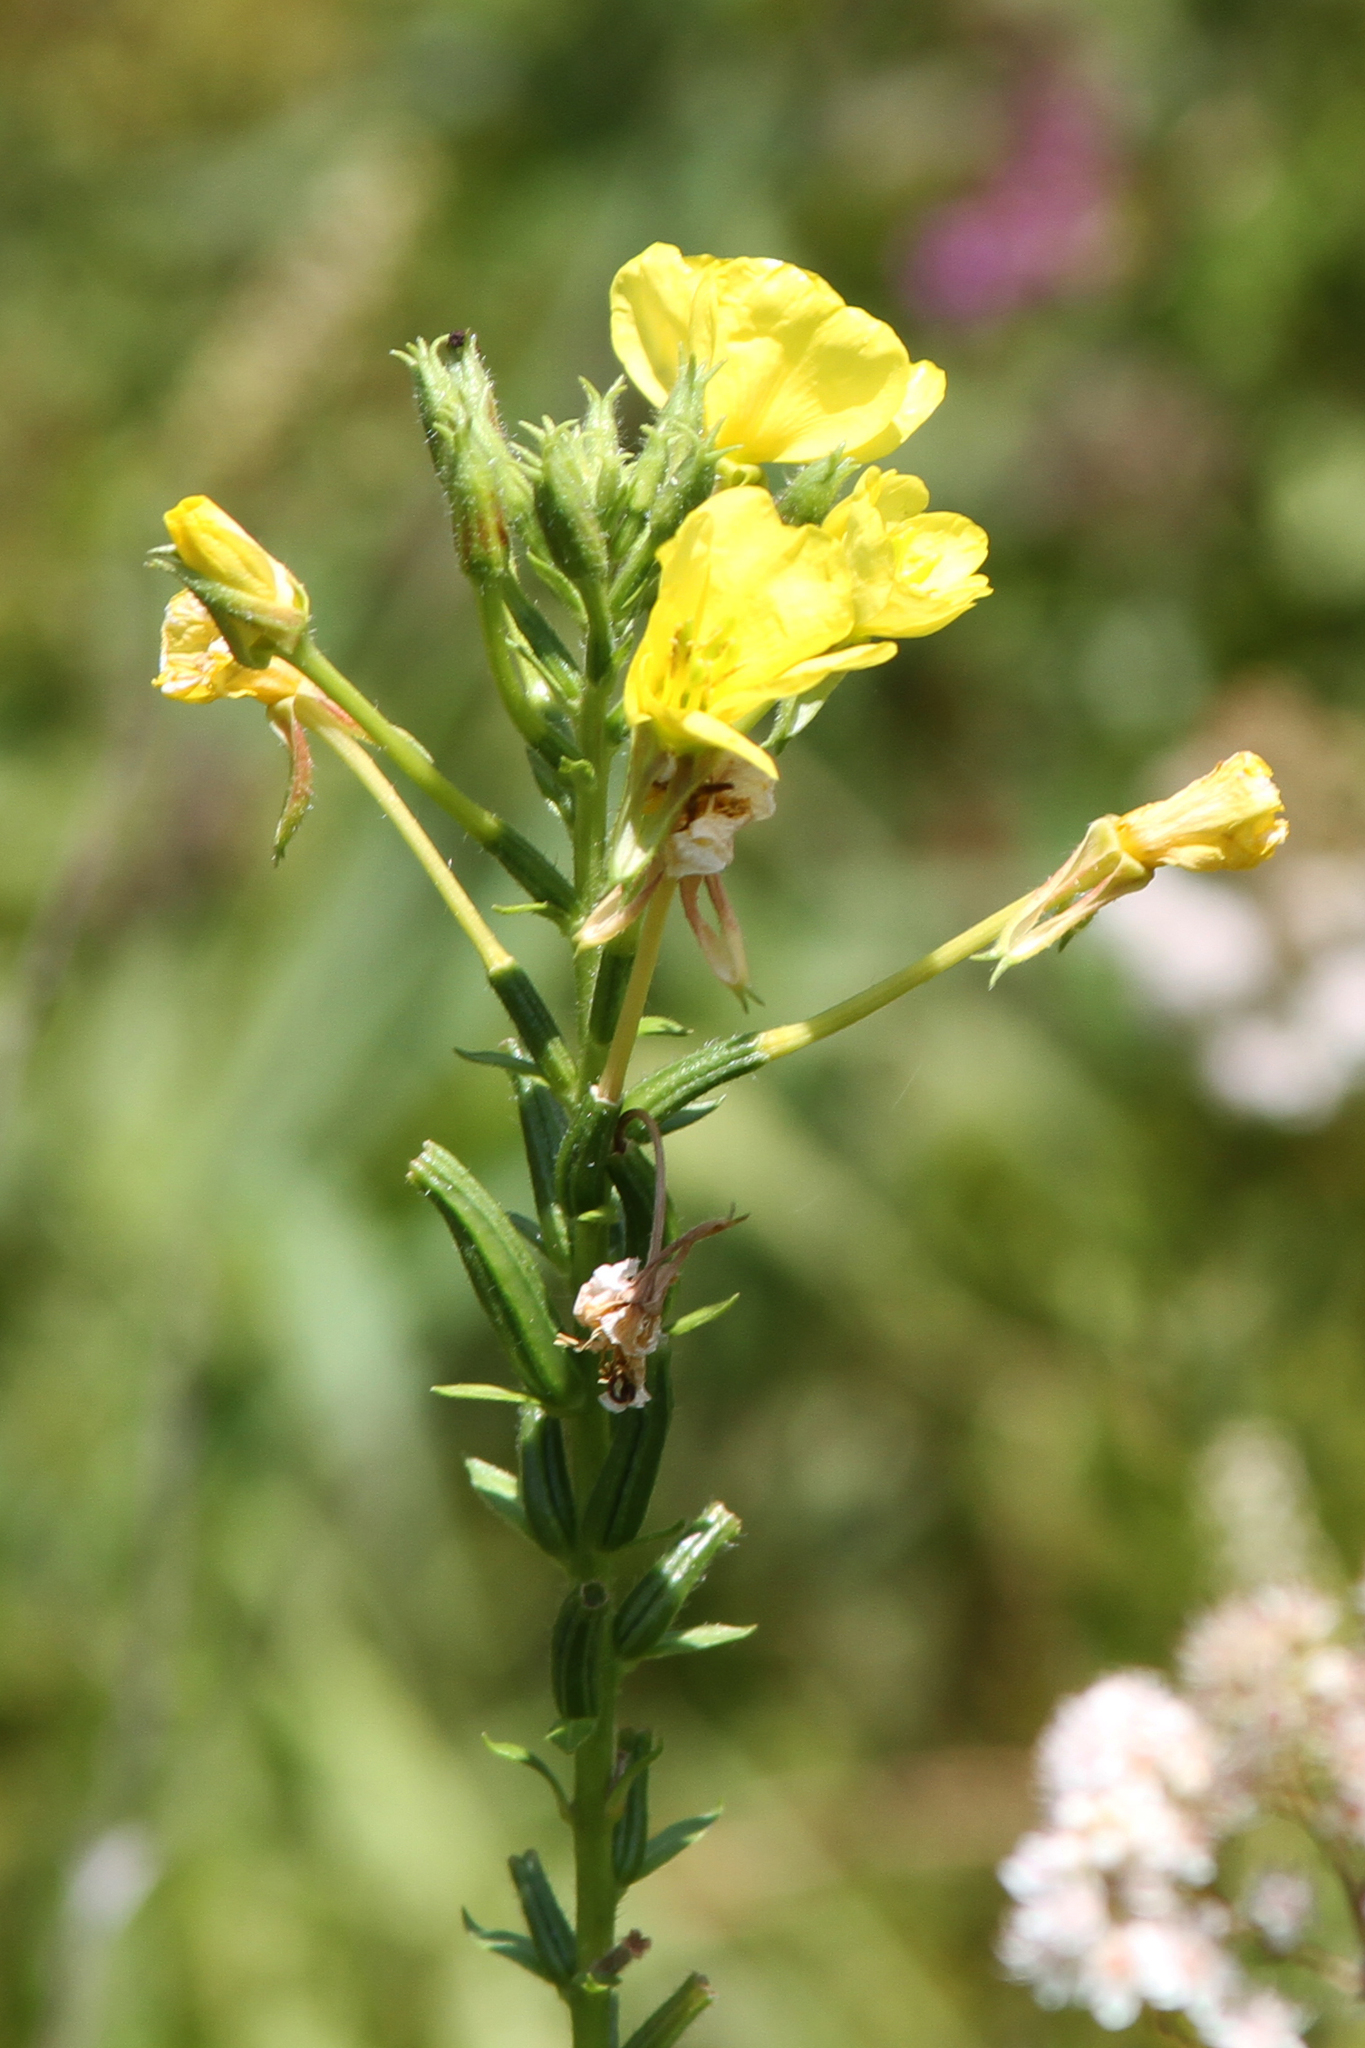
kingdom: Plantae
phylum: Tracheophyta
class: Magnoliopsida
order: Myrtales
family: Onagraceae
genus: Oenothera
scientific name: Oenothera biennis
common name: Common evening-primrose
